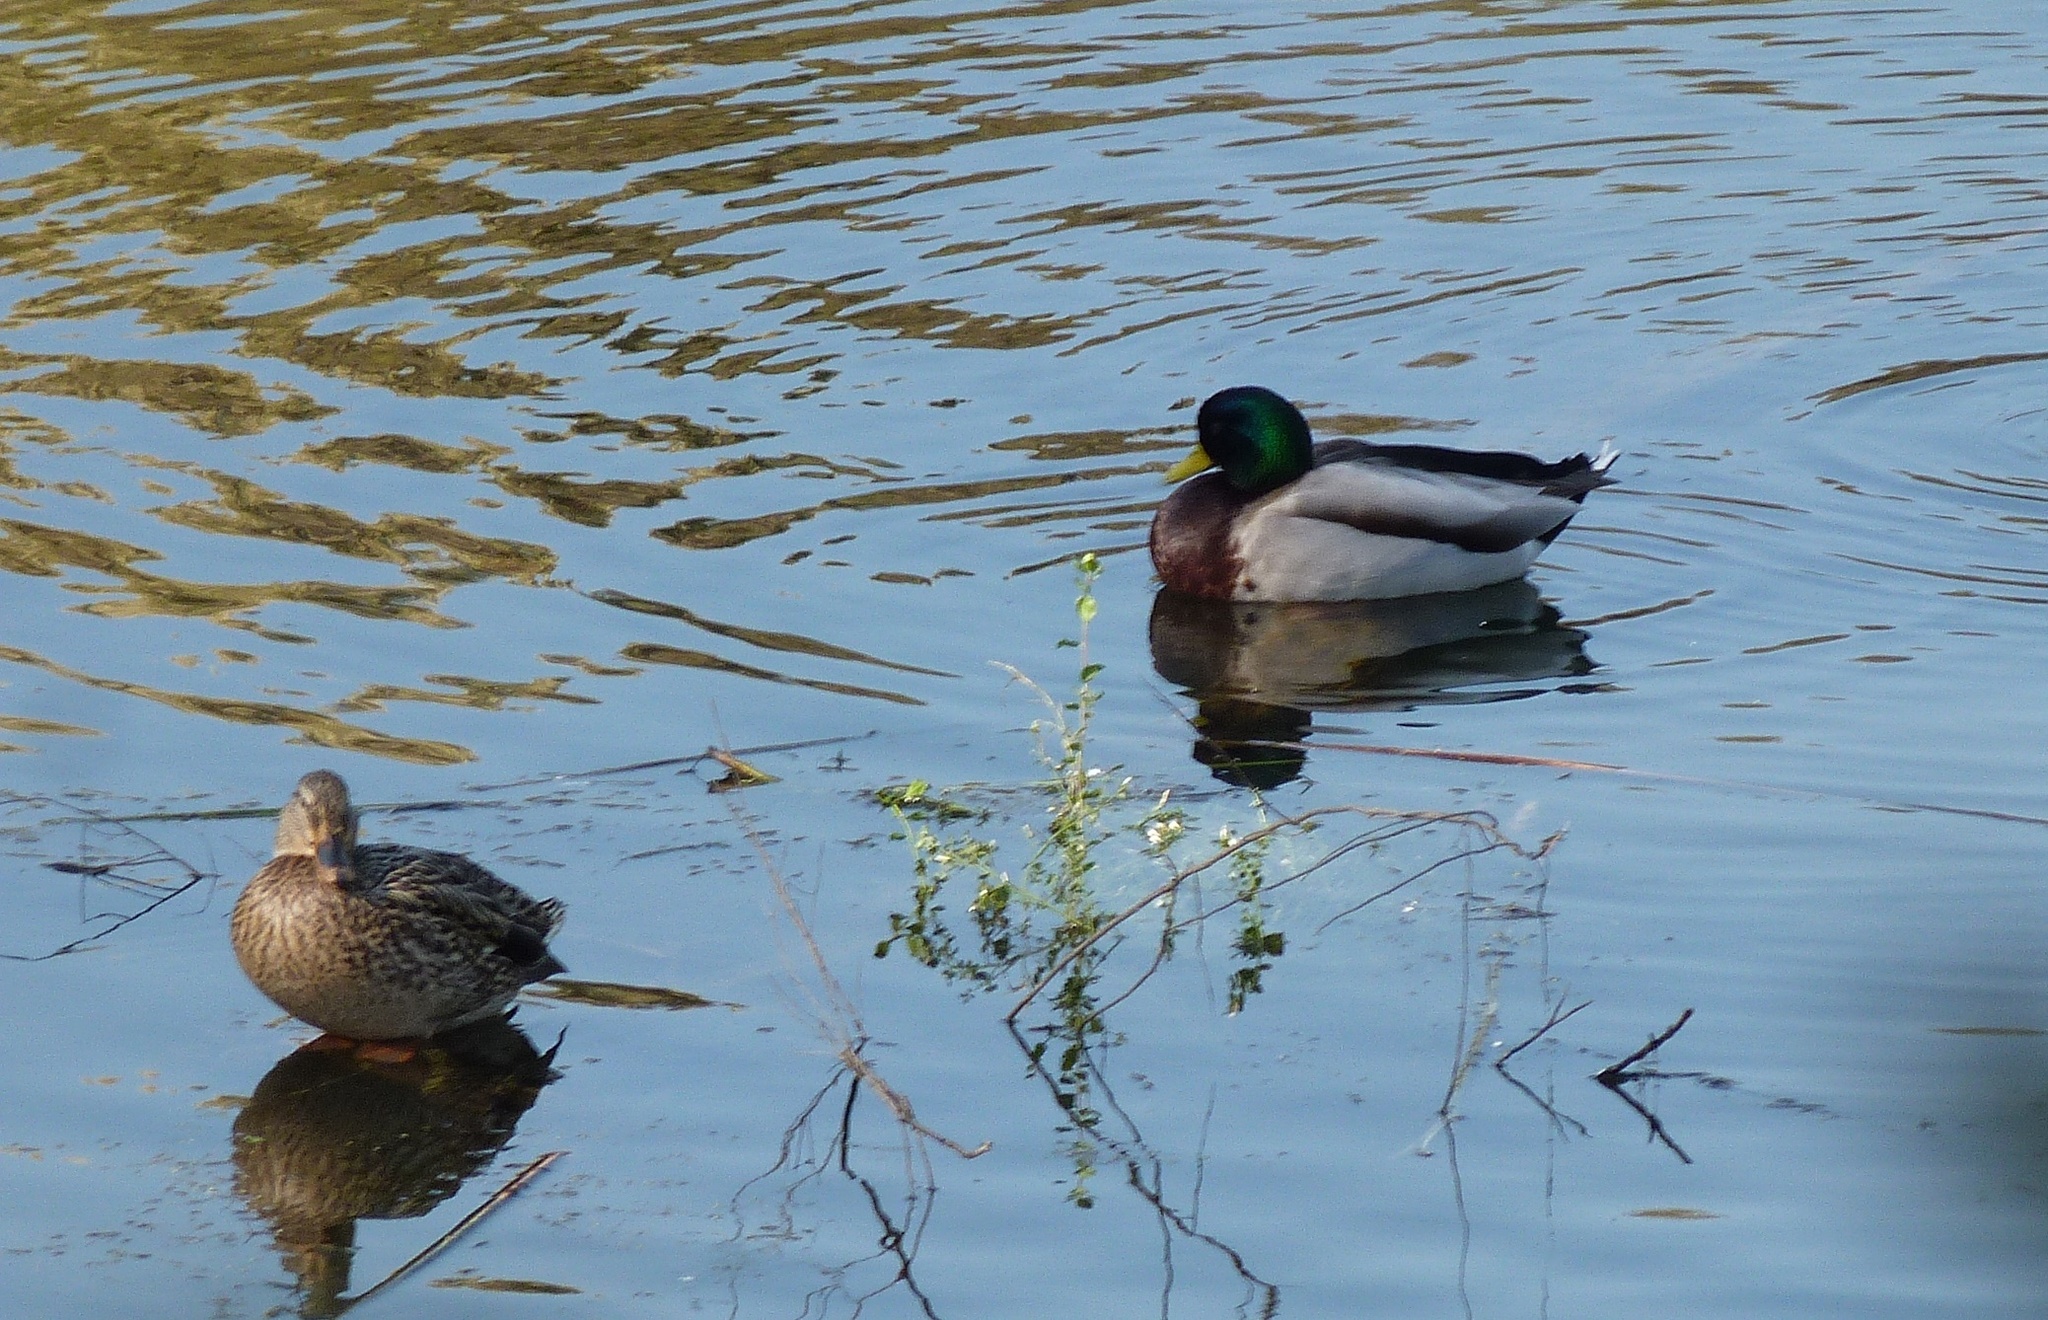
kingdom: Animalia
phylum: Chordata
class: Aves
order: Anseriformes
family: Anatidae
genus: Anas
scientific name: Anas platyrhynchos
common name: Mallard
